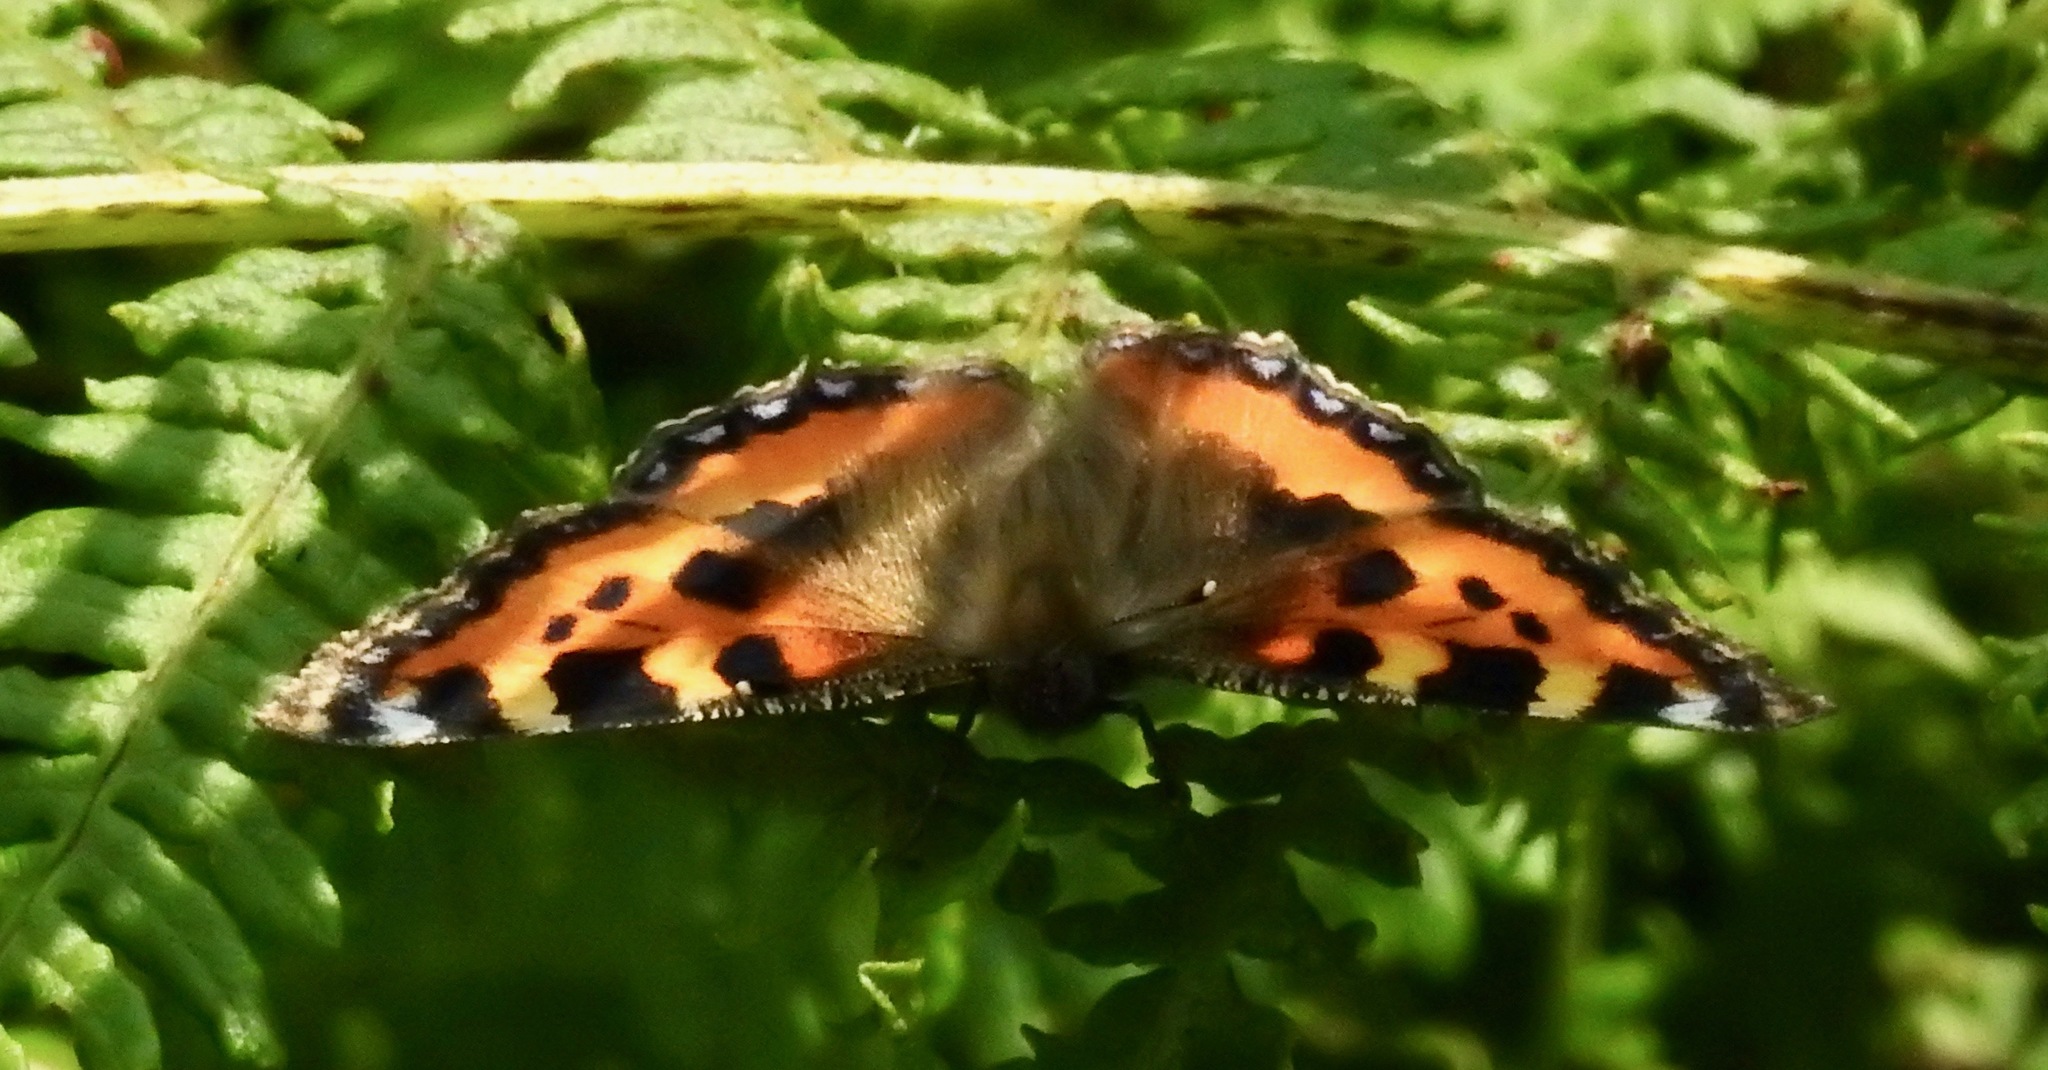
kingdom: Animalia
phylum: Arthropoda
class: Insecta
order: Lepidoptera
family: Nymphalidae
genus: Aglais
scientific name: Aglais urticae
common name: Small tortoiseshell
